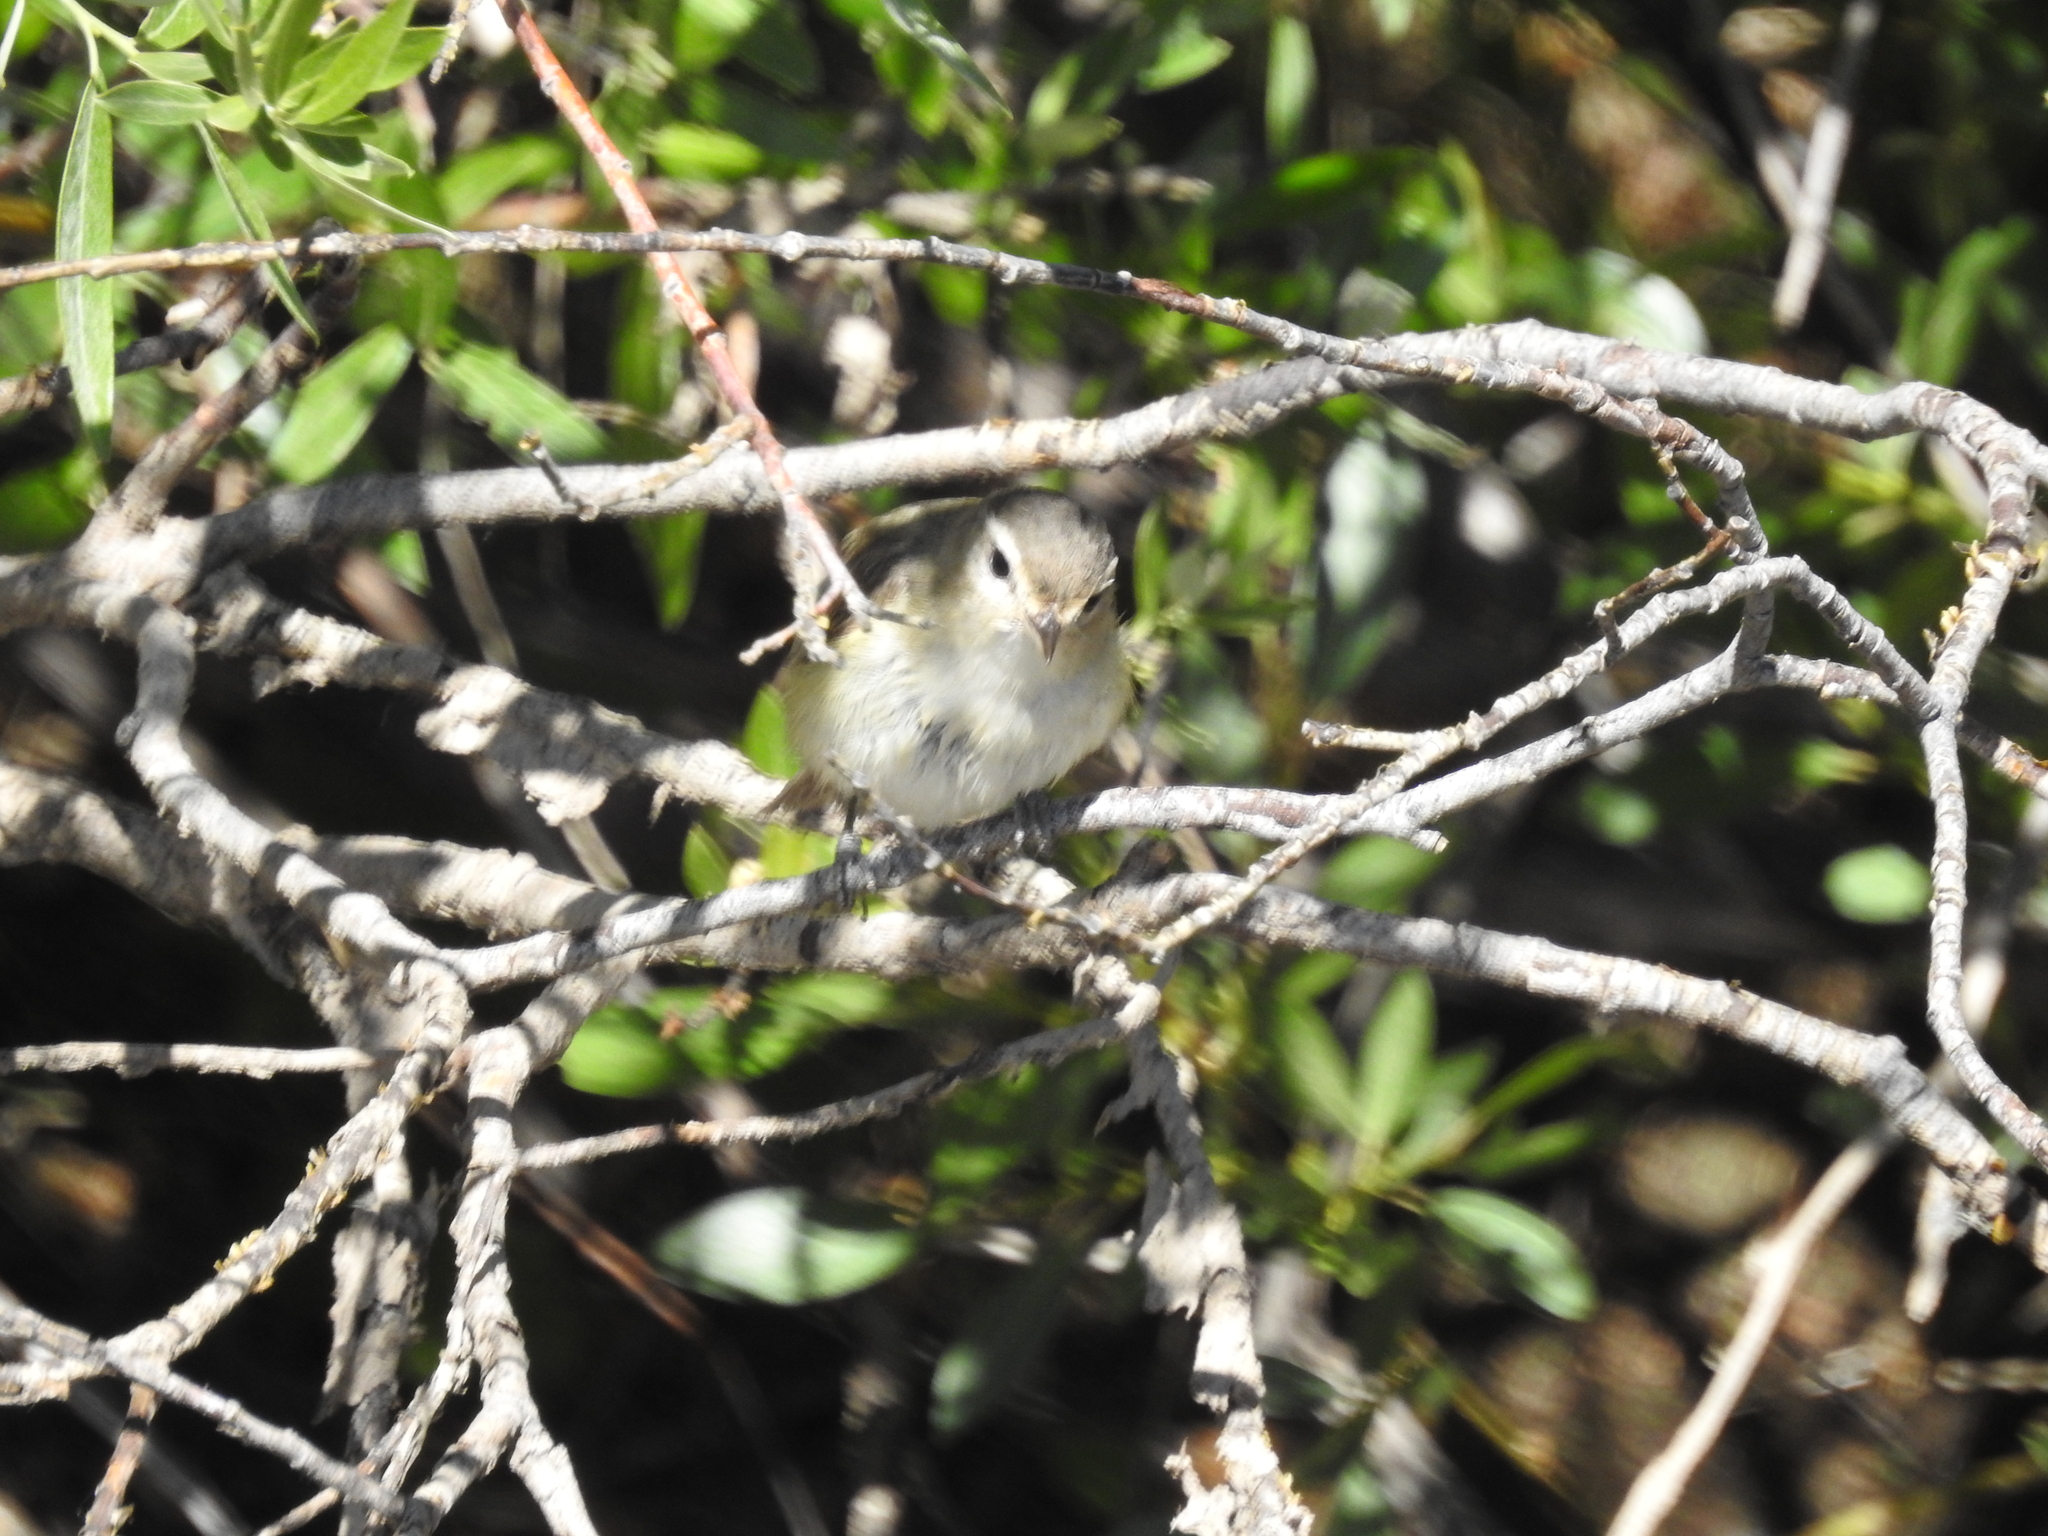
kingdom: Animalia
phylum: Chordata
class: Aves
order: Passeriformes
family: Vireonidae
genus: Vireo
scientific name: Vireo gilvus
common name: Warbling vireo
